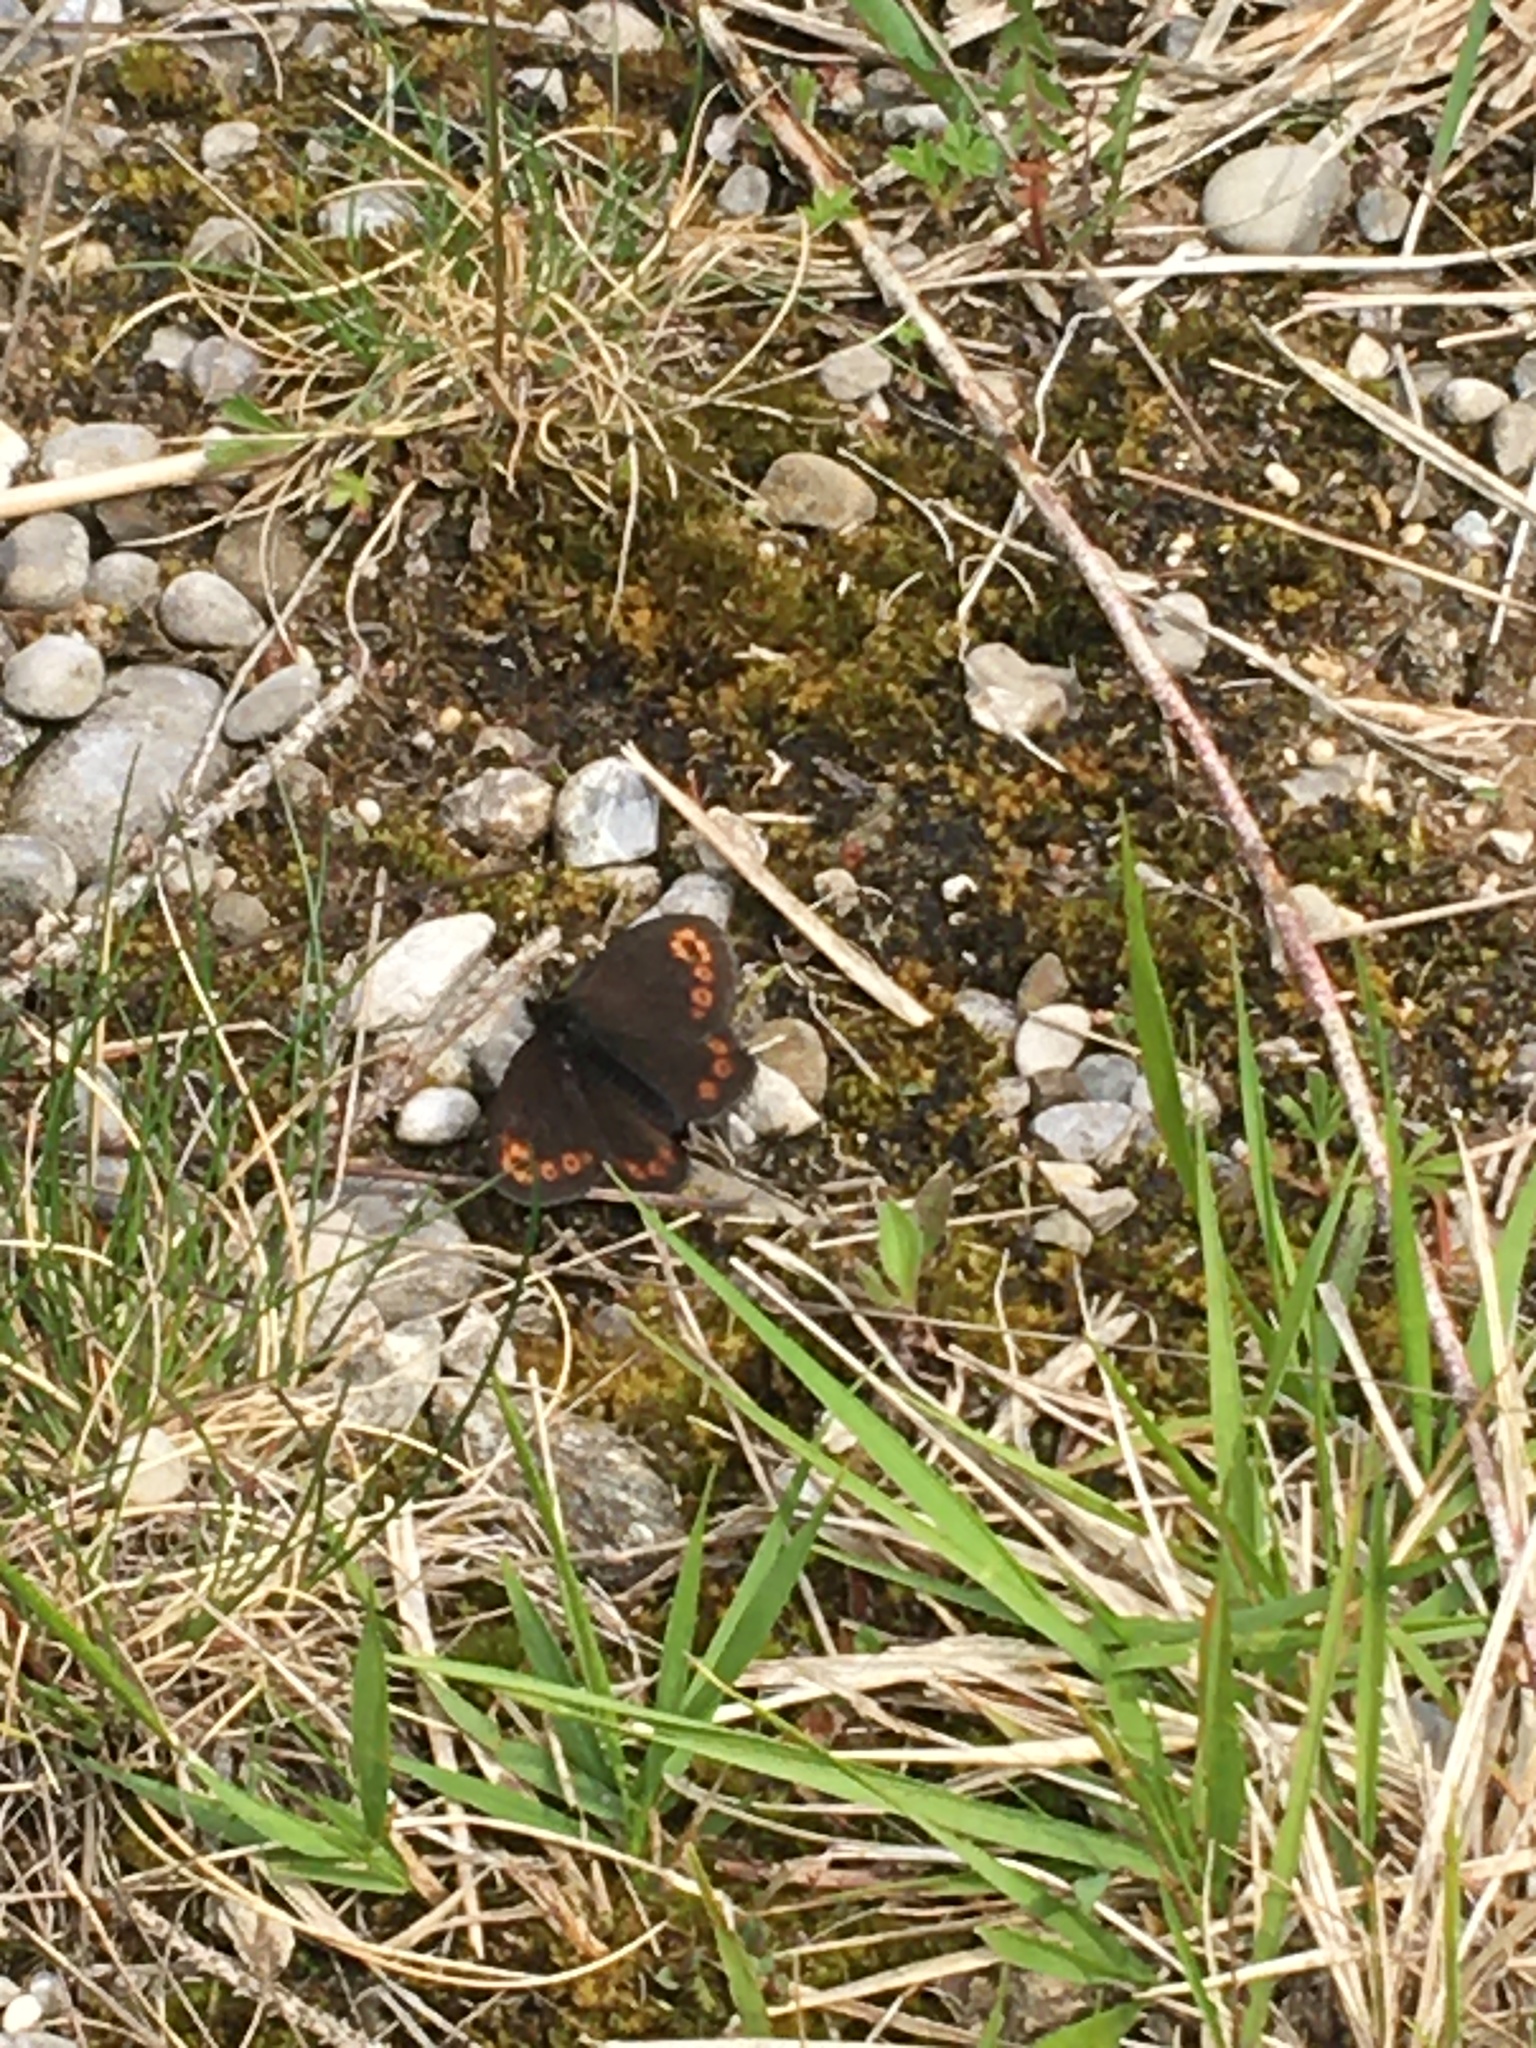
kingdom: Animalia
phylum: Arthropoda
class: Insecta
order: Lepidoptera
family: Nymphalidae
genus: Erebia
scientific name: Erebia medusa
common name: Woodland ringlet
